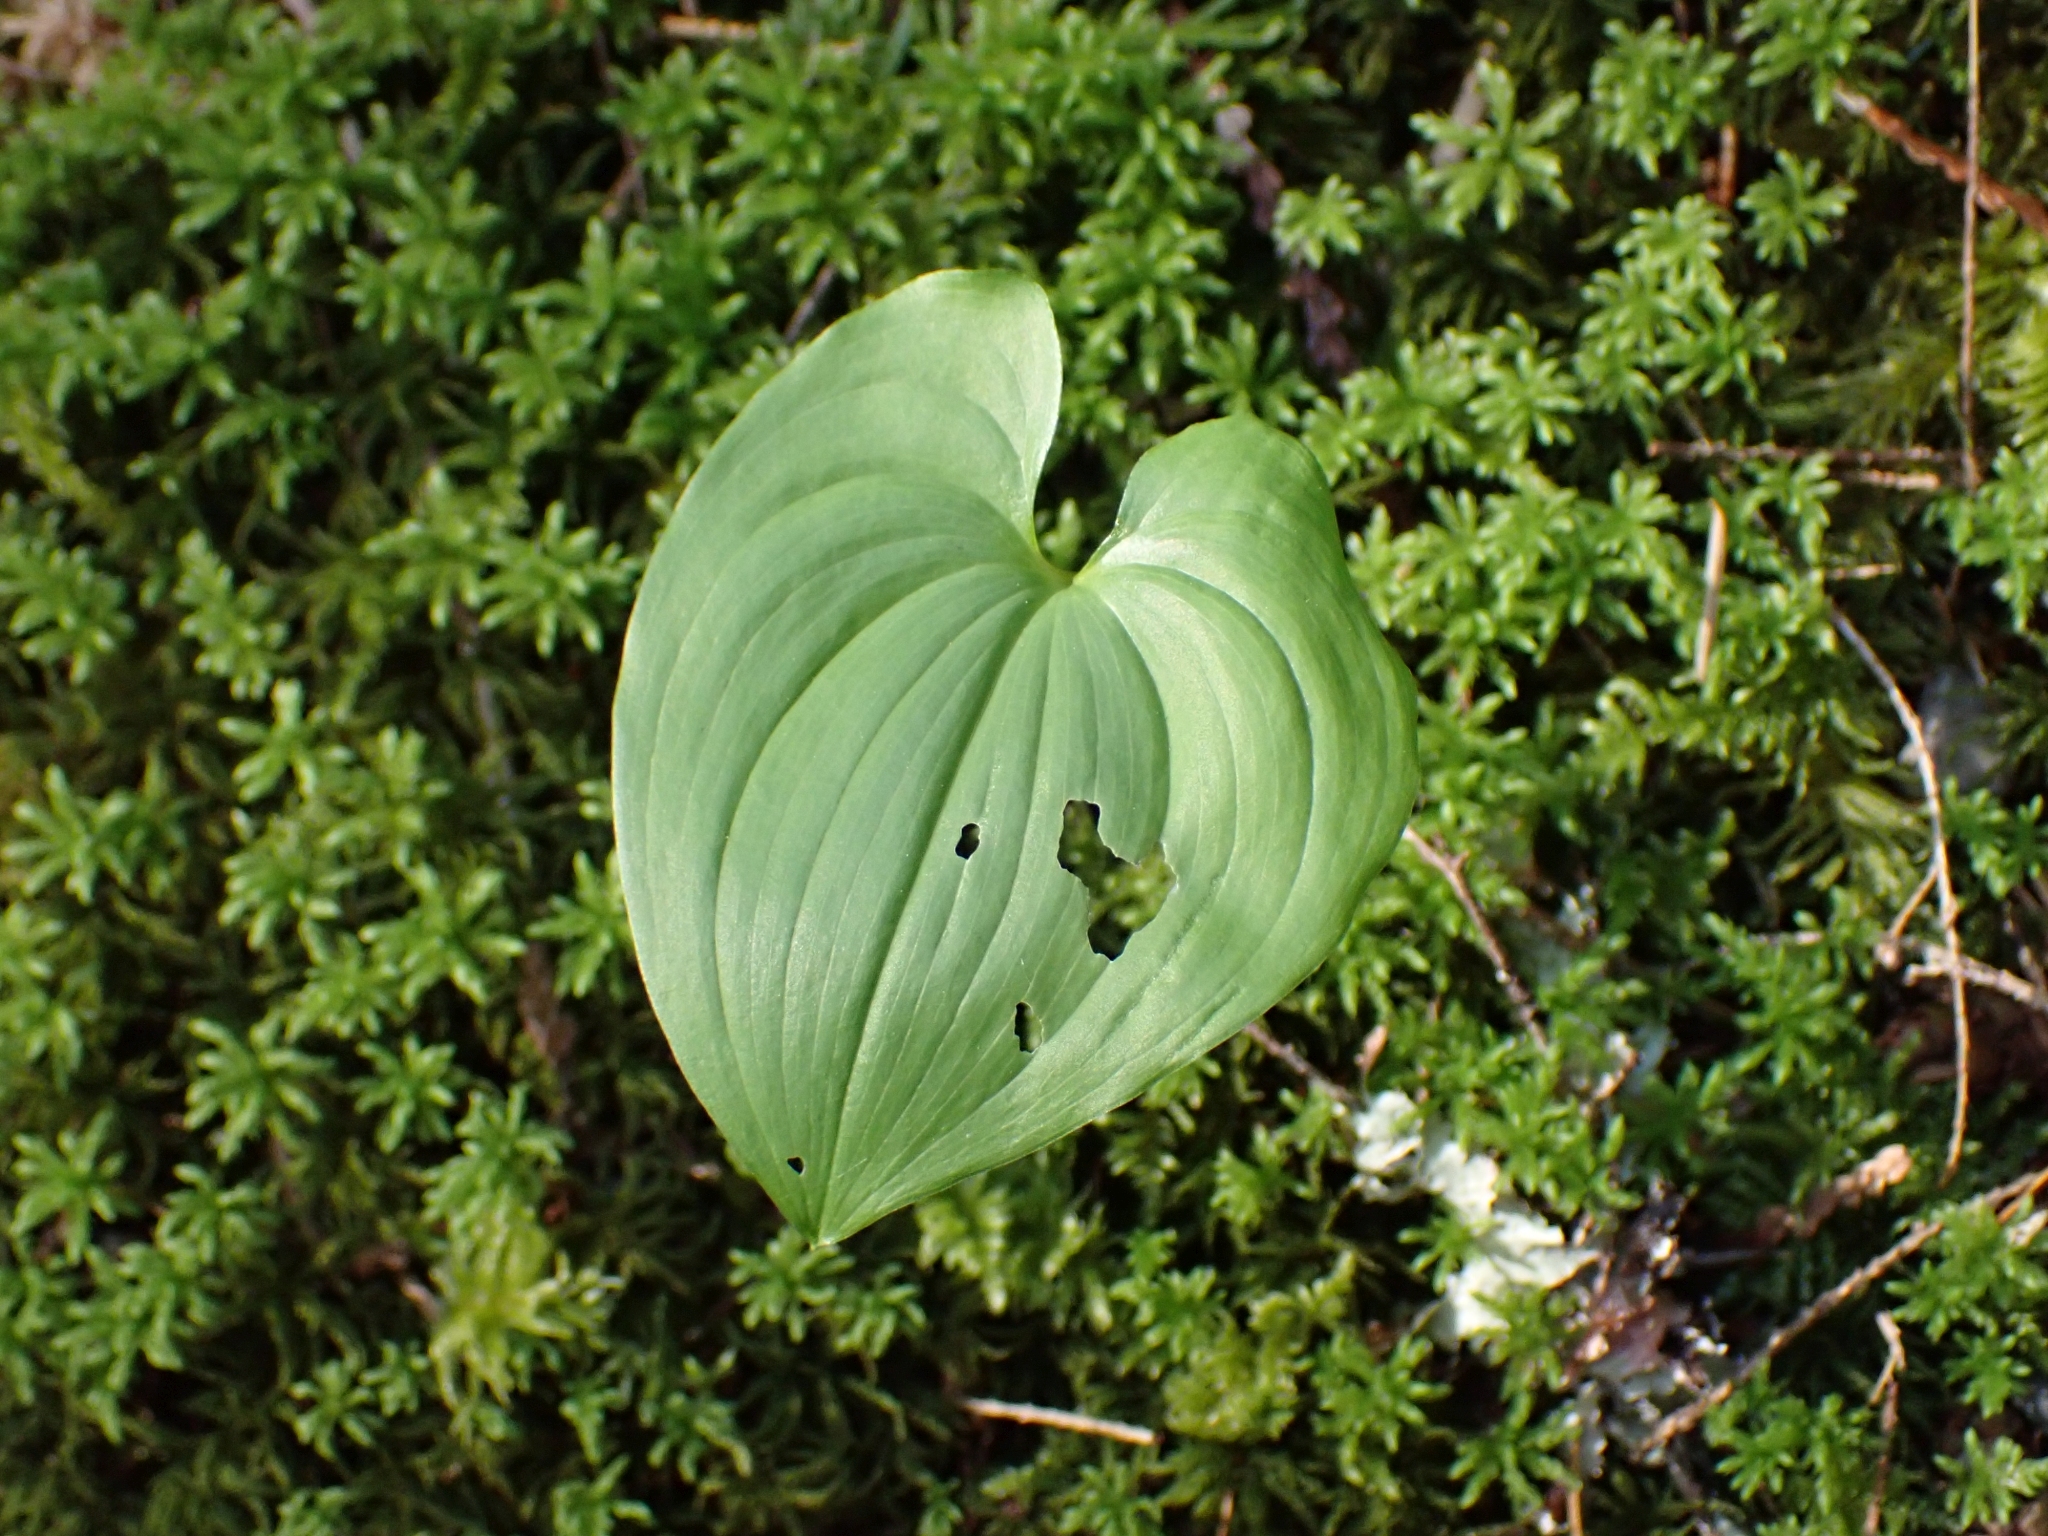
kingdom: Plantae
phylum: Tracheophyta
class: Liliopsida
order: Asparagales
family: Asparagaceae
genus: Maianthemum
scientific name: Maianthemum dilatatum
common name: False lily-of-the-valley
